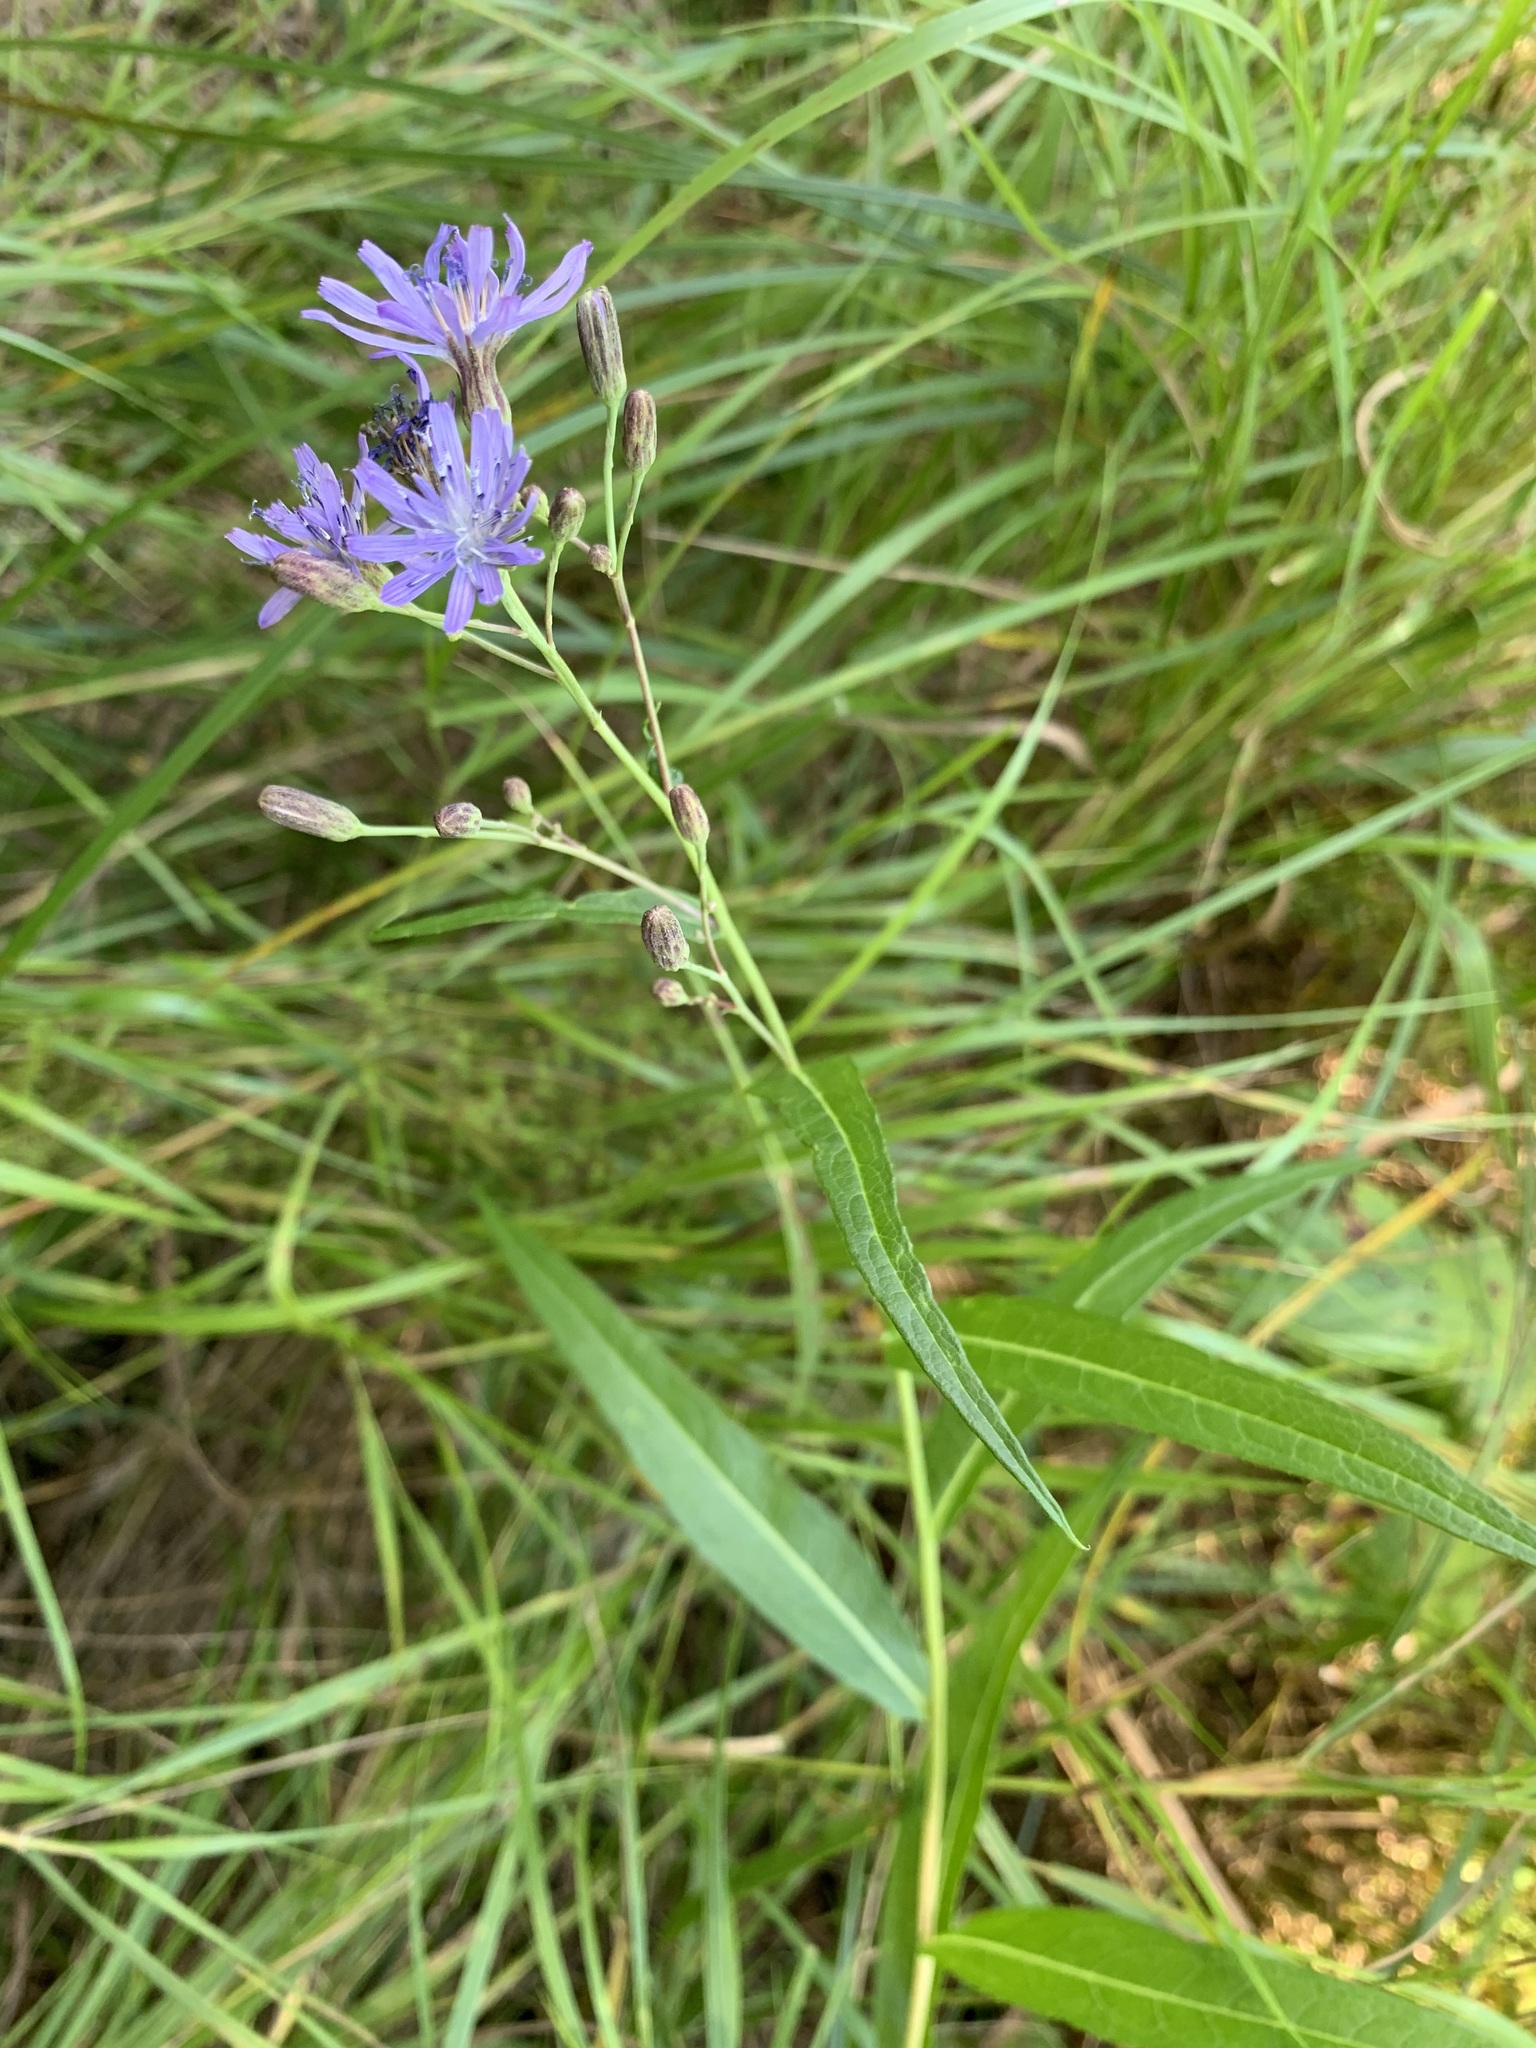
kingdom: Plantae
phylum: Tracheophyta
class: Magnoliopsida
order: Asterales
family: Asteraceae
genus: Lactuca
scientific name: Lactuca sibirica
